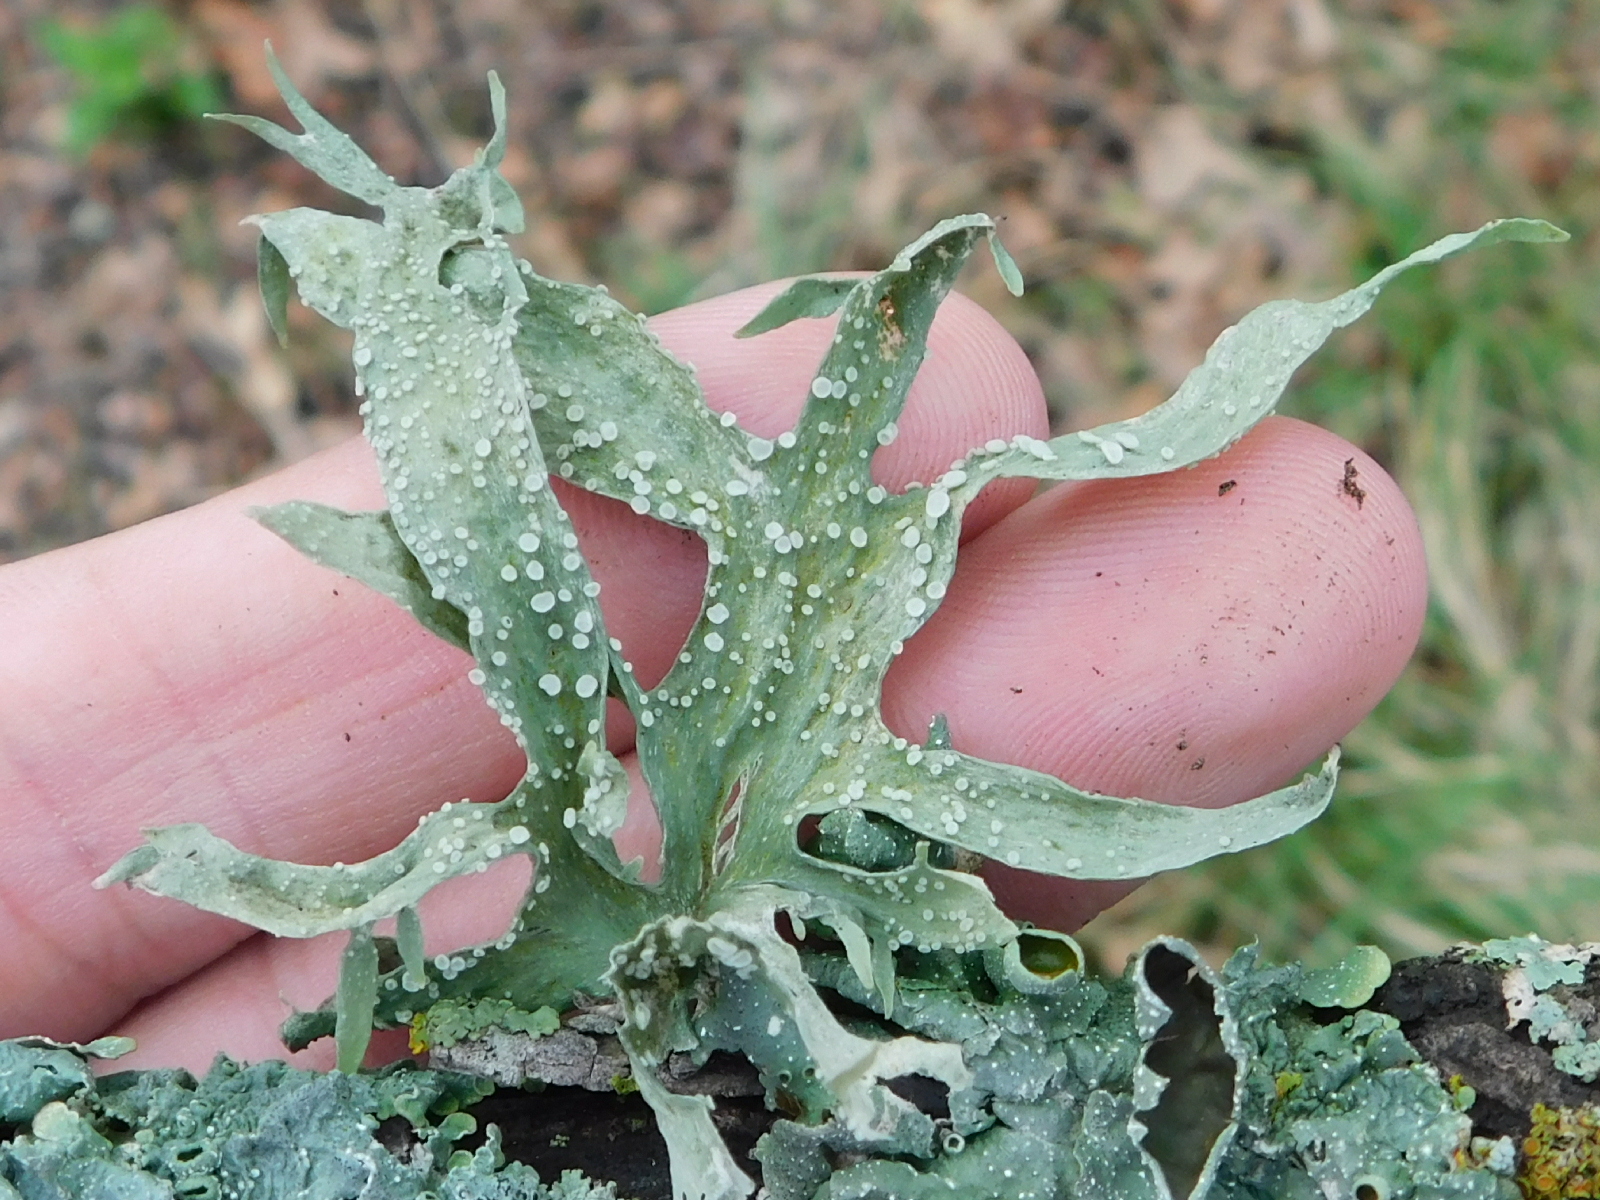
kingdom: Fungi
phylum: Ascomycota
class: Lecanoromycetes
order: Lecanorales
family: Ramalinaceae
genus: Ramalina
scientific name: Ramalina celastri
